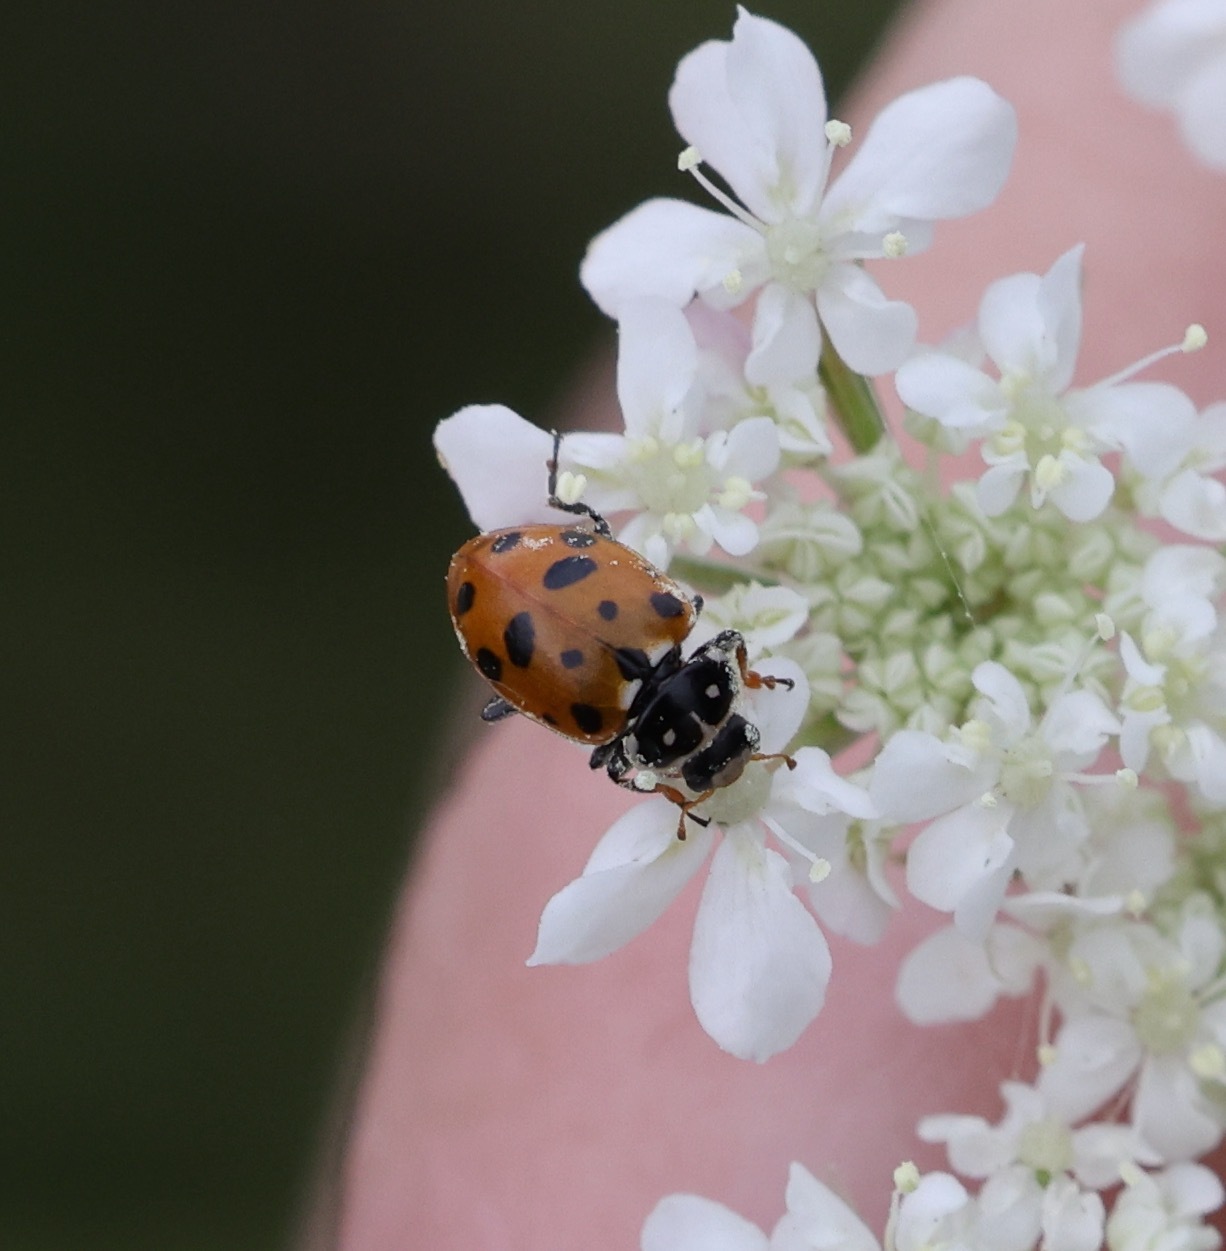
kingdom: Animalia
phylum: Arthropoda
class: Insecta
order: Coleoptera
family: Coccinellidae
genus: Hippodamia
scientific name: Hippodamia variegata
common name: Ladybird beetle
